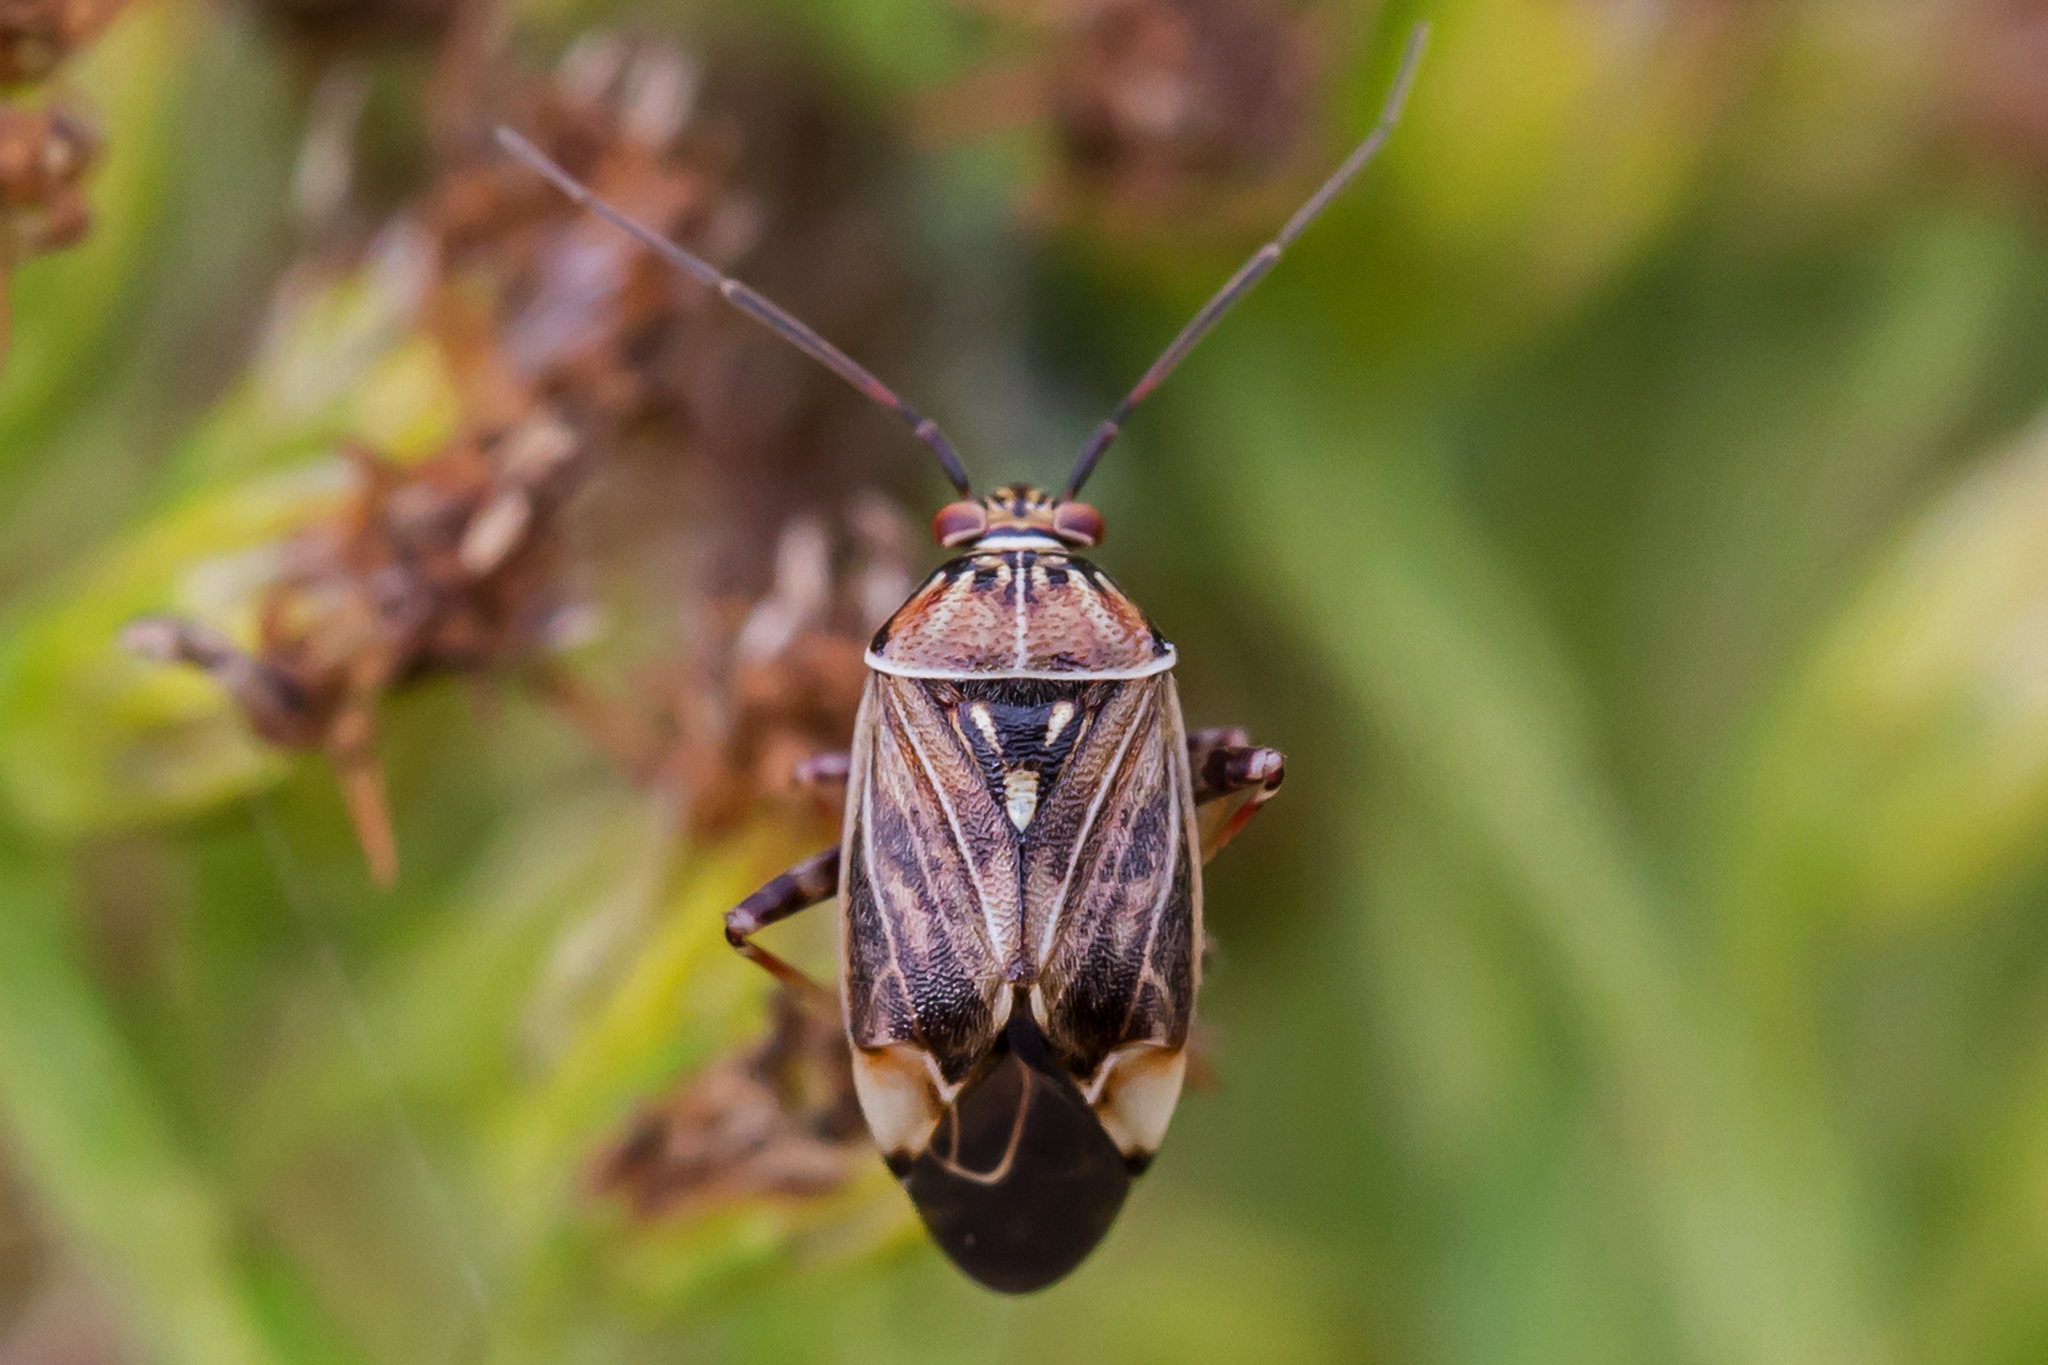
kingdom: Animalia
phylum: Arthropoda
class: Insecta
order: Hemiptera
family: Miridae
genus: Lygus
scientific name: Lygus lineolaris
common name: North american tarnished plant bug
